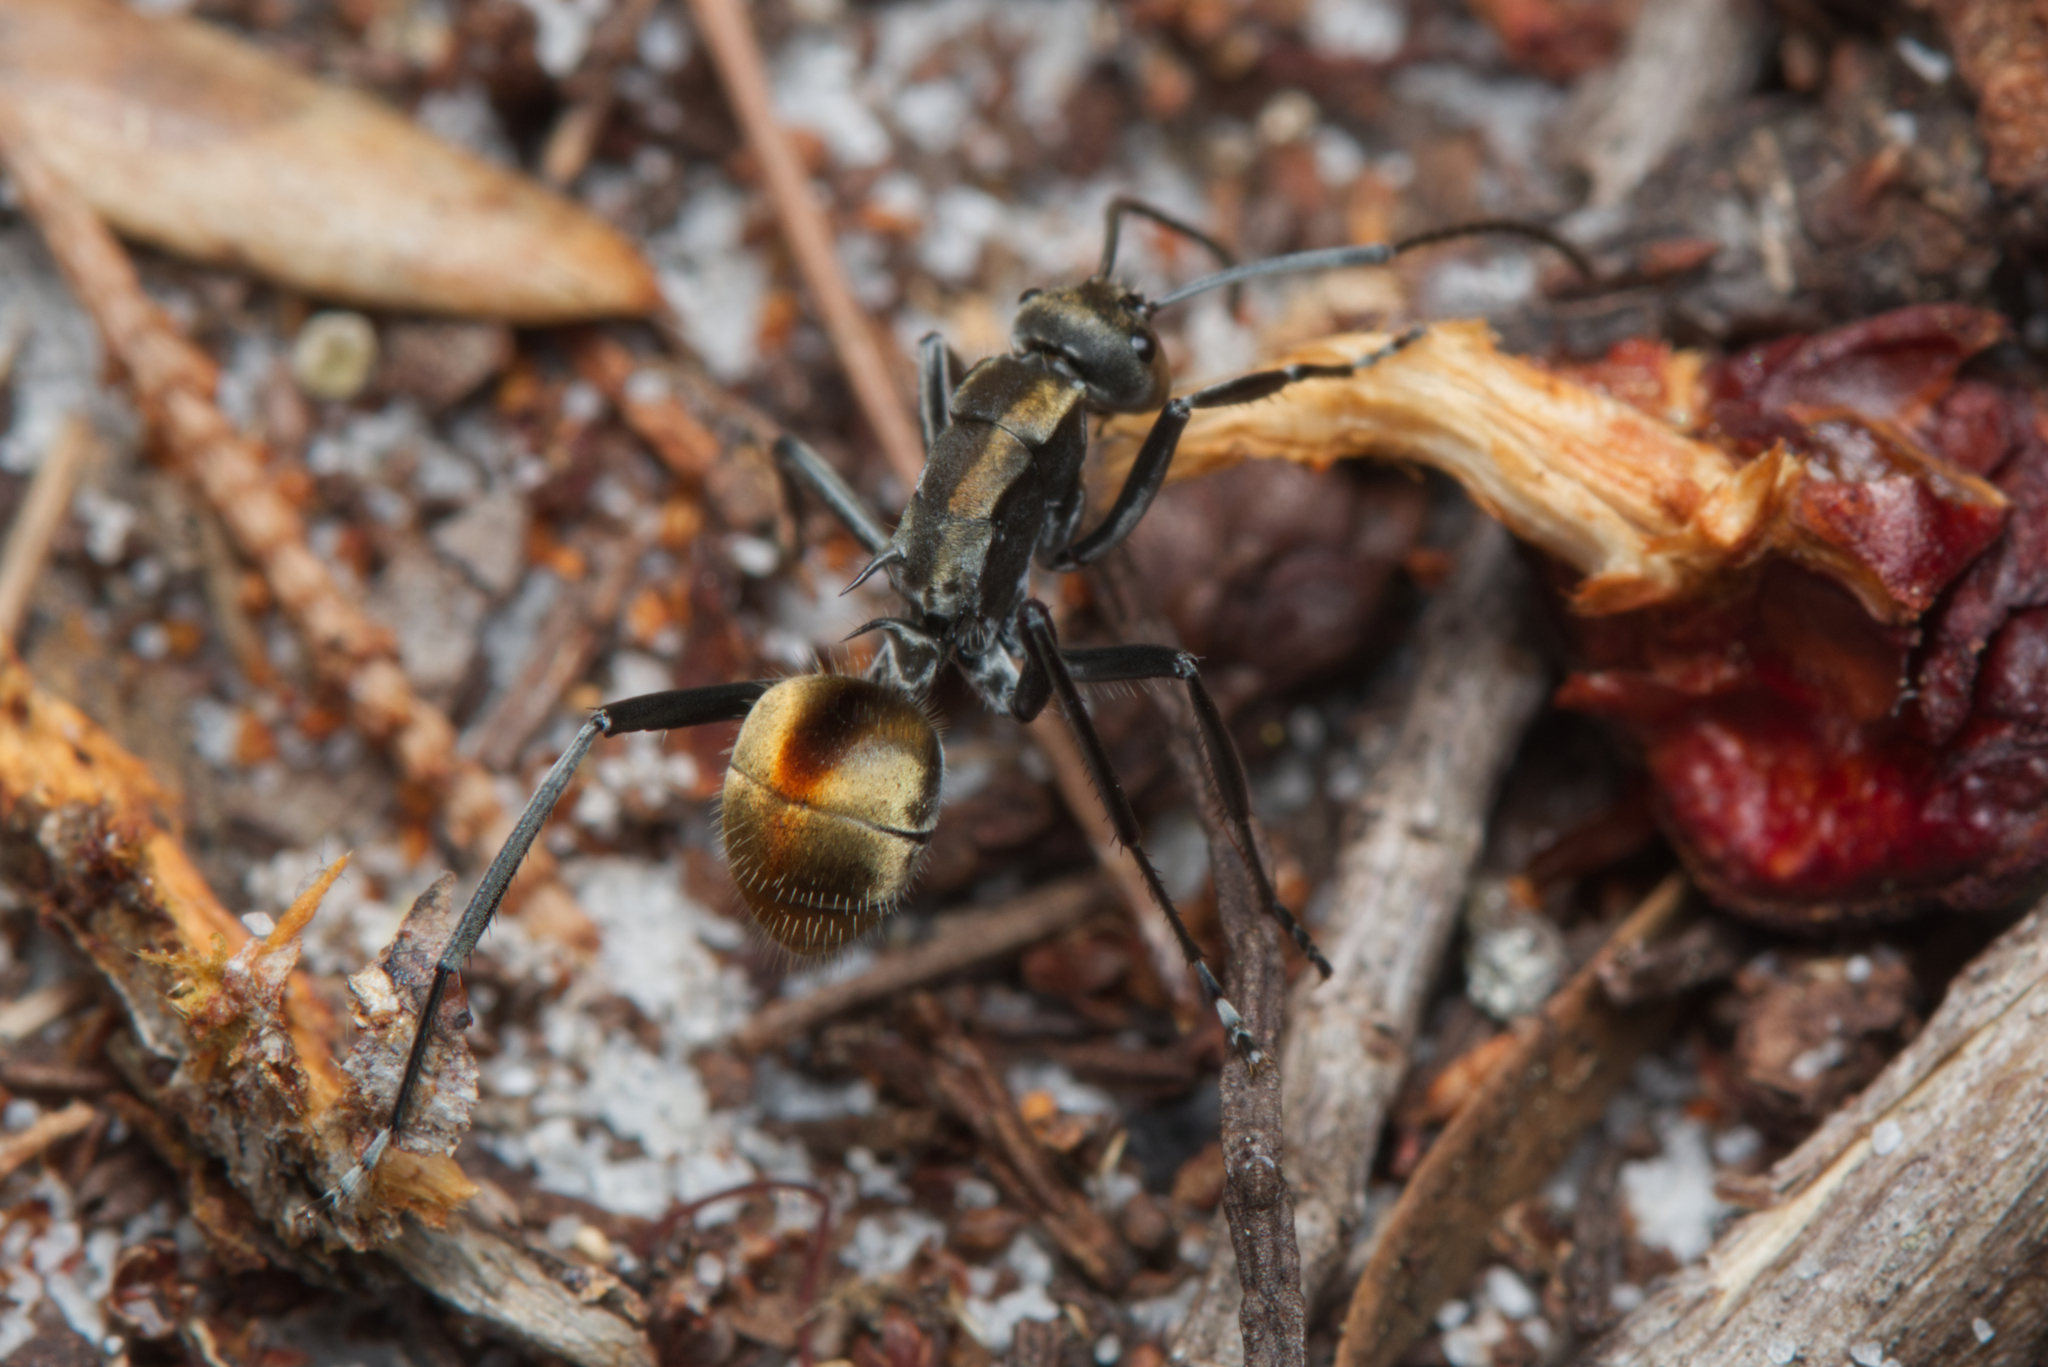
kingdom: Animalia
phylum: Arthropoda
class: Insecta
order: Hymenoptera
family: Formicidae
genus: Polyrhachis
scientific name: Polyrhachis
